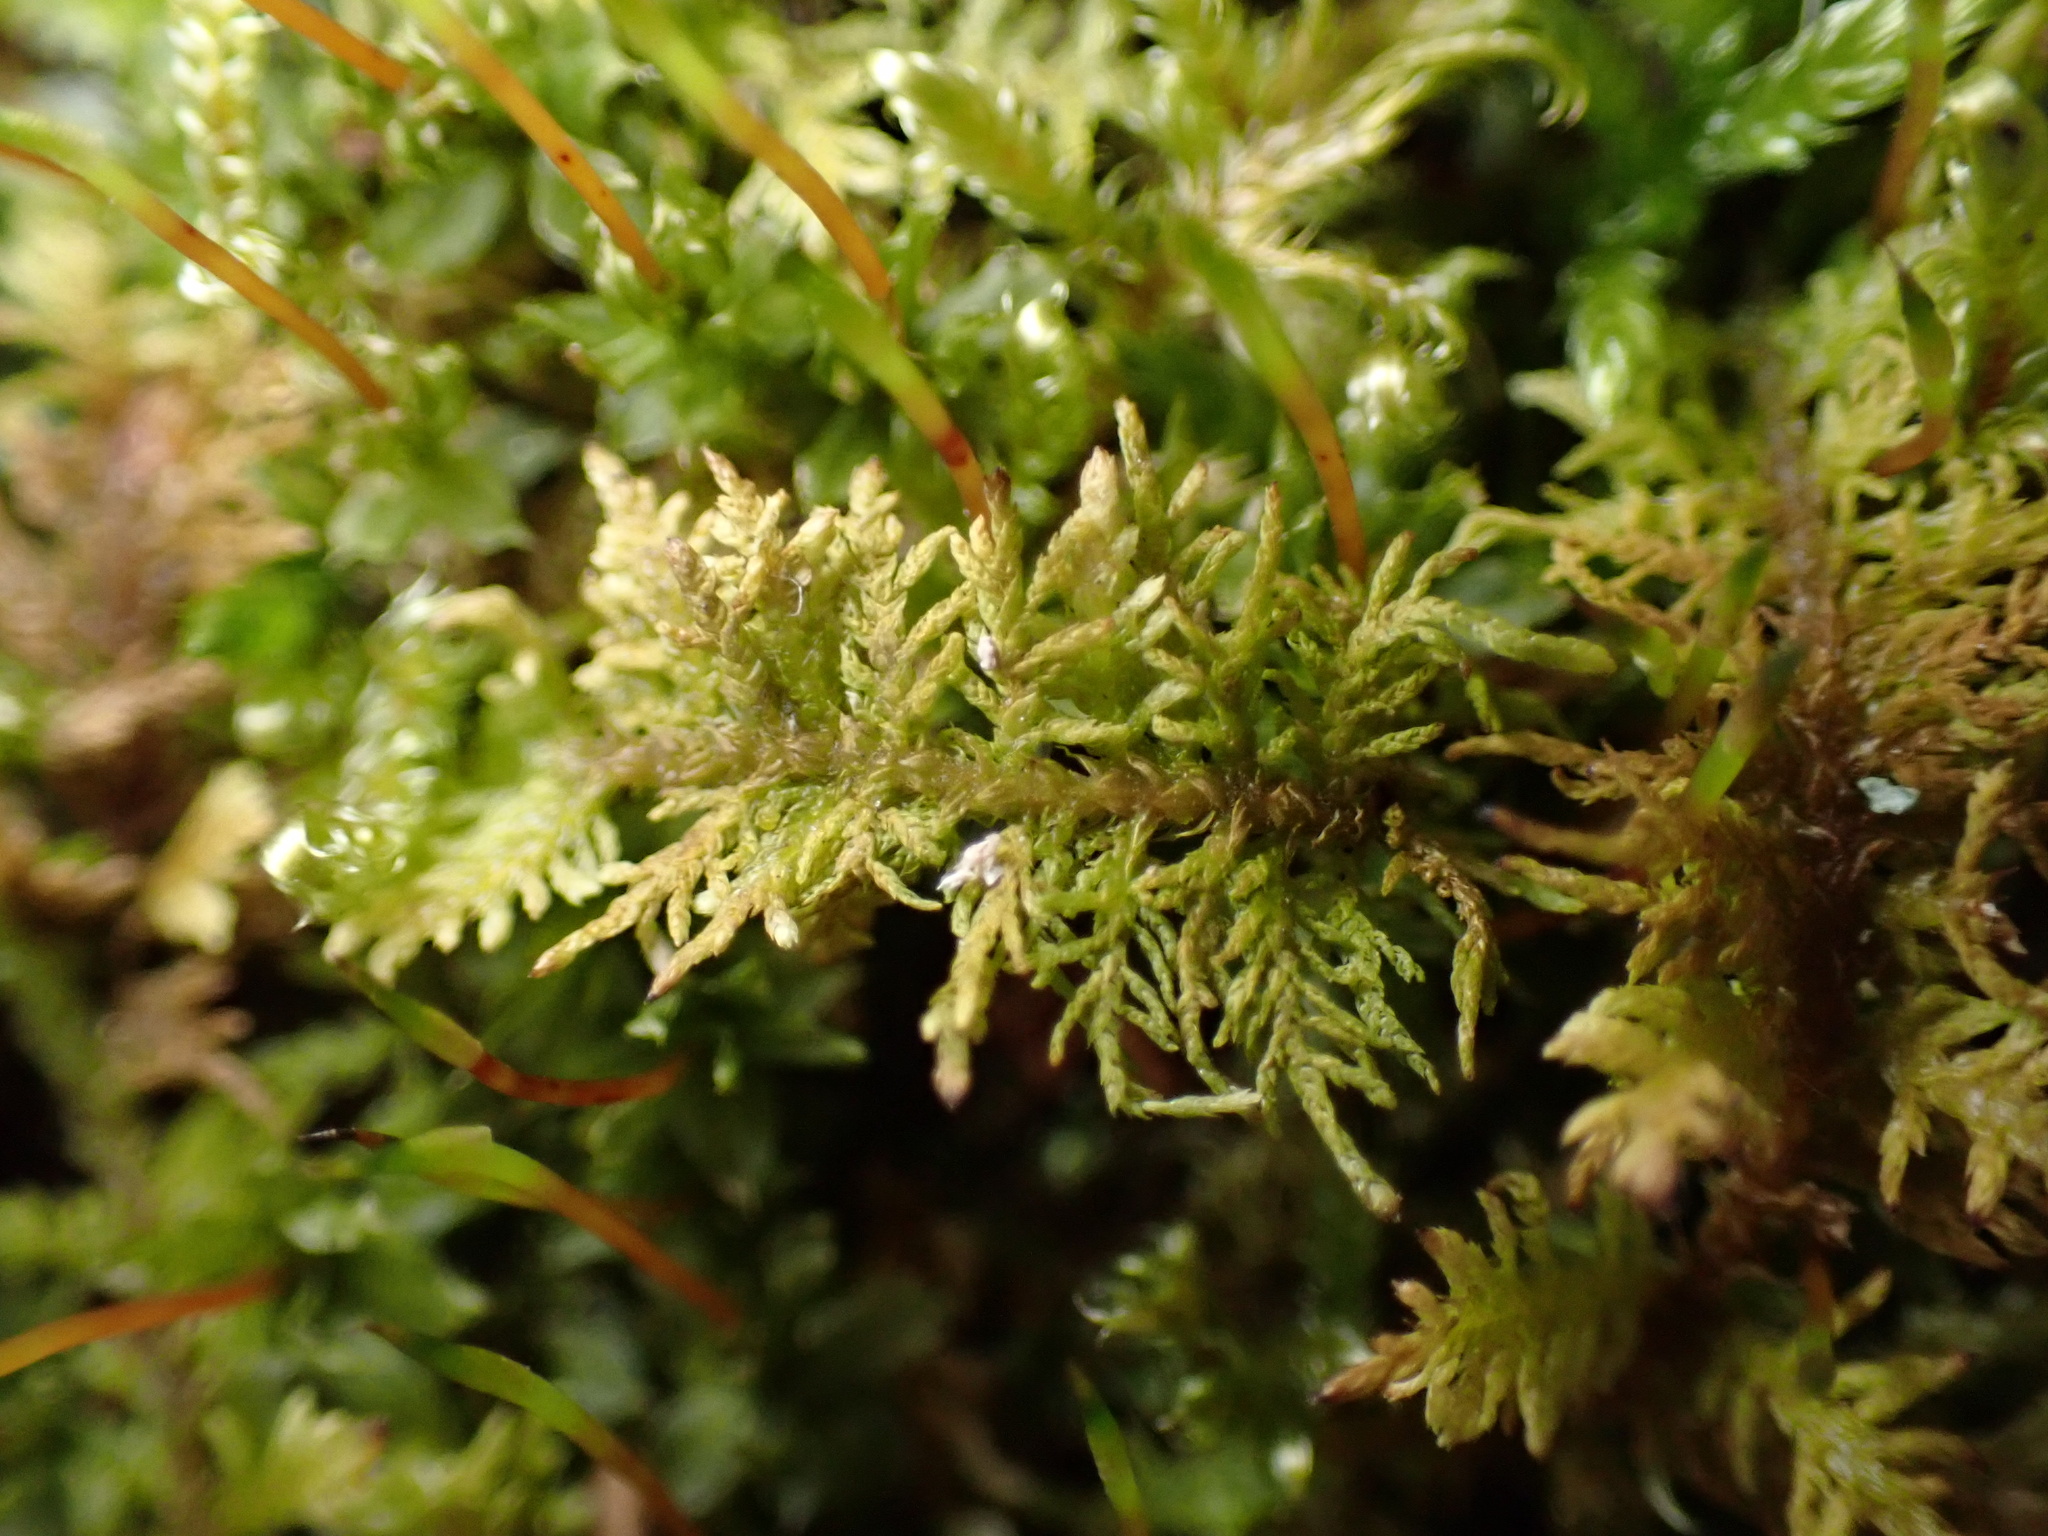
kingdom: Plantae
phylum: Bryophyta
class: Bryopsida
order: Hypnales
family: Thuidiaceae
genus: Thuidium
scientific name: Thuidium delicatulum
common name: Delicate fern moss
